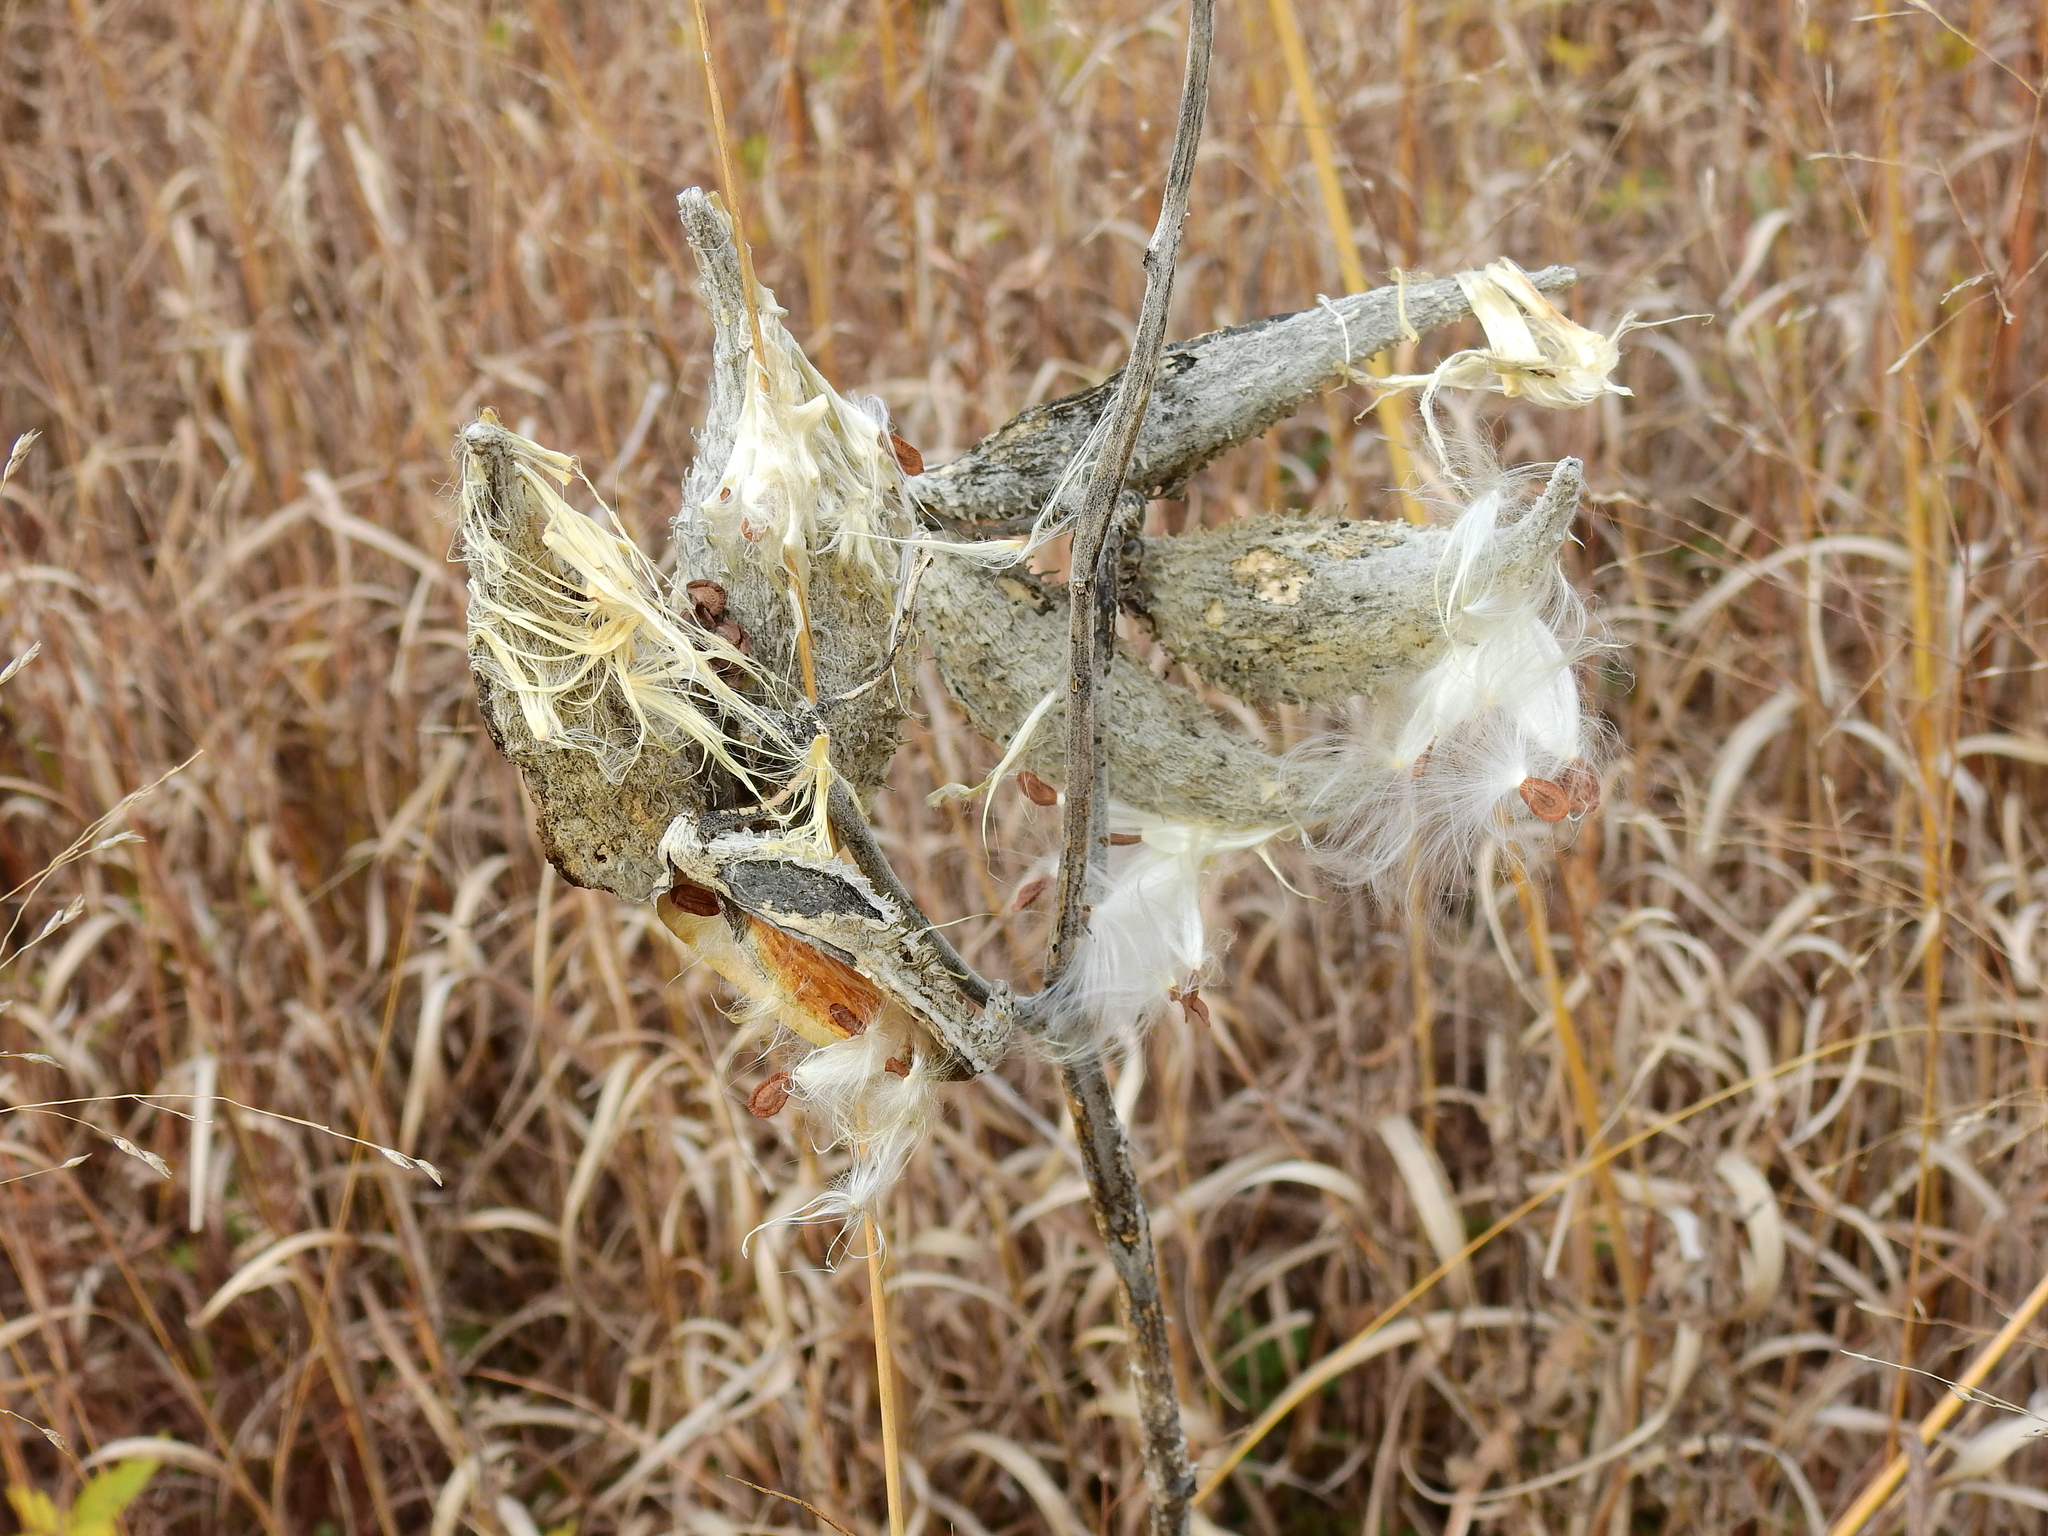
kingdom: Plantae
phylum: Tracheophyta
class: Magnoliopsida
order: Gentianales
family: Apocynaceae
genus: Asclepias
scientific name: Asclepias syriaca
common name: Common milkweed
